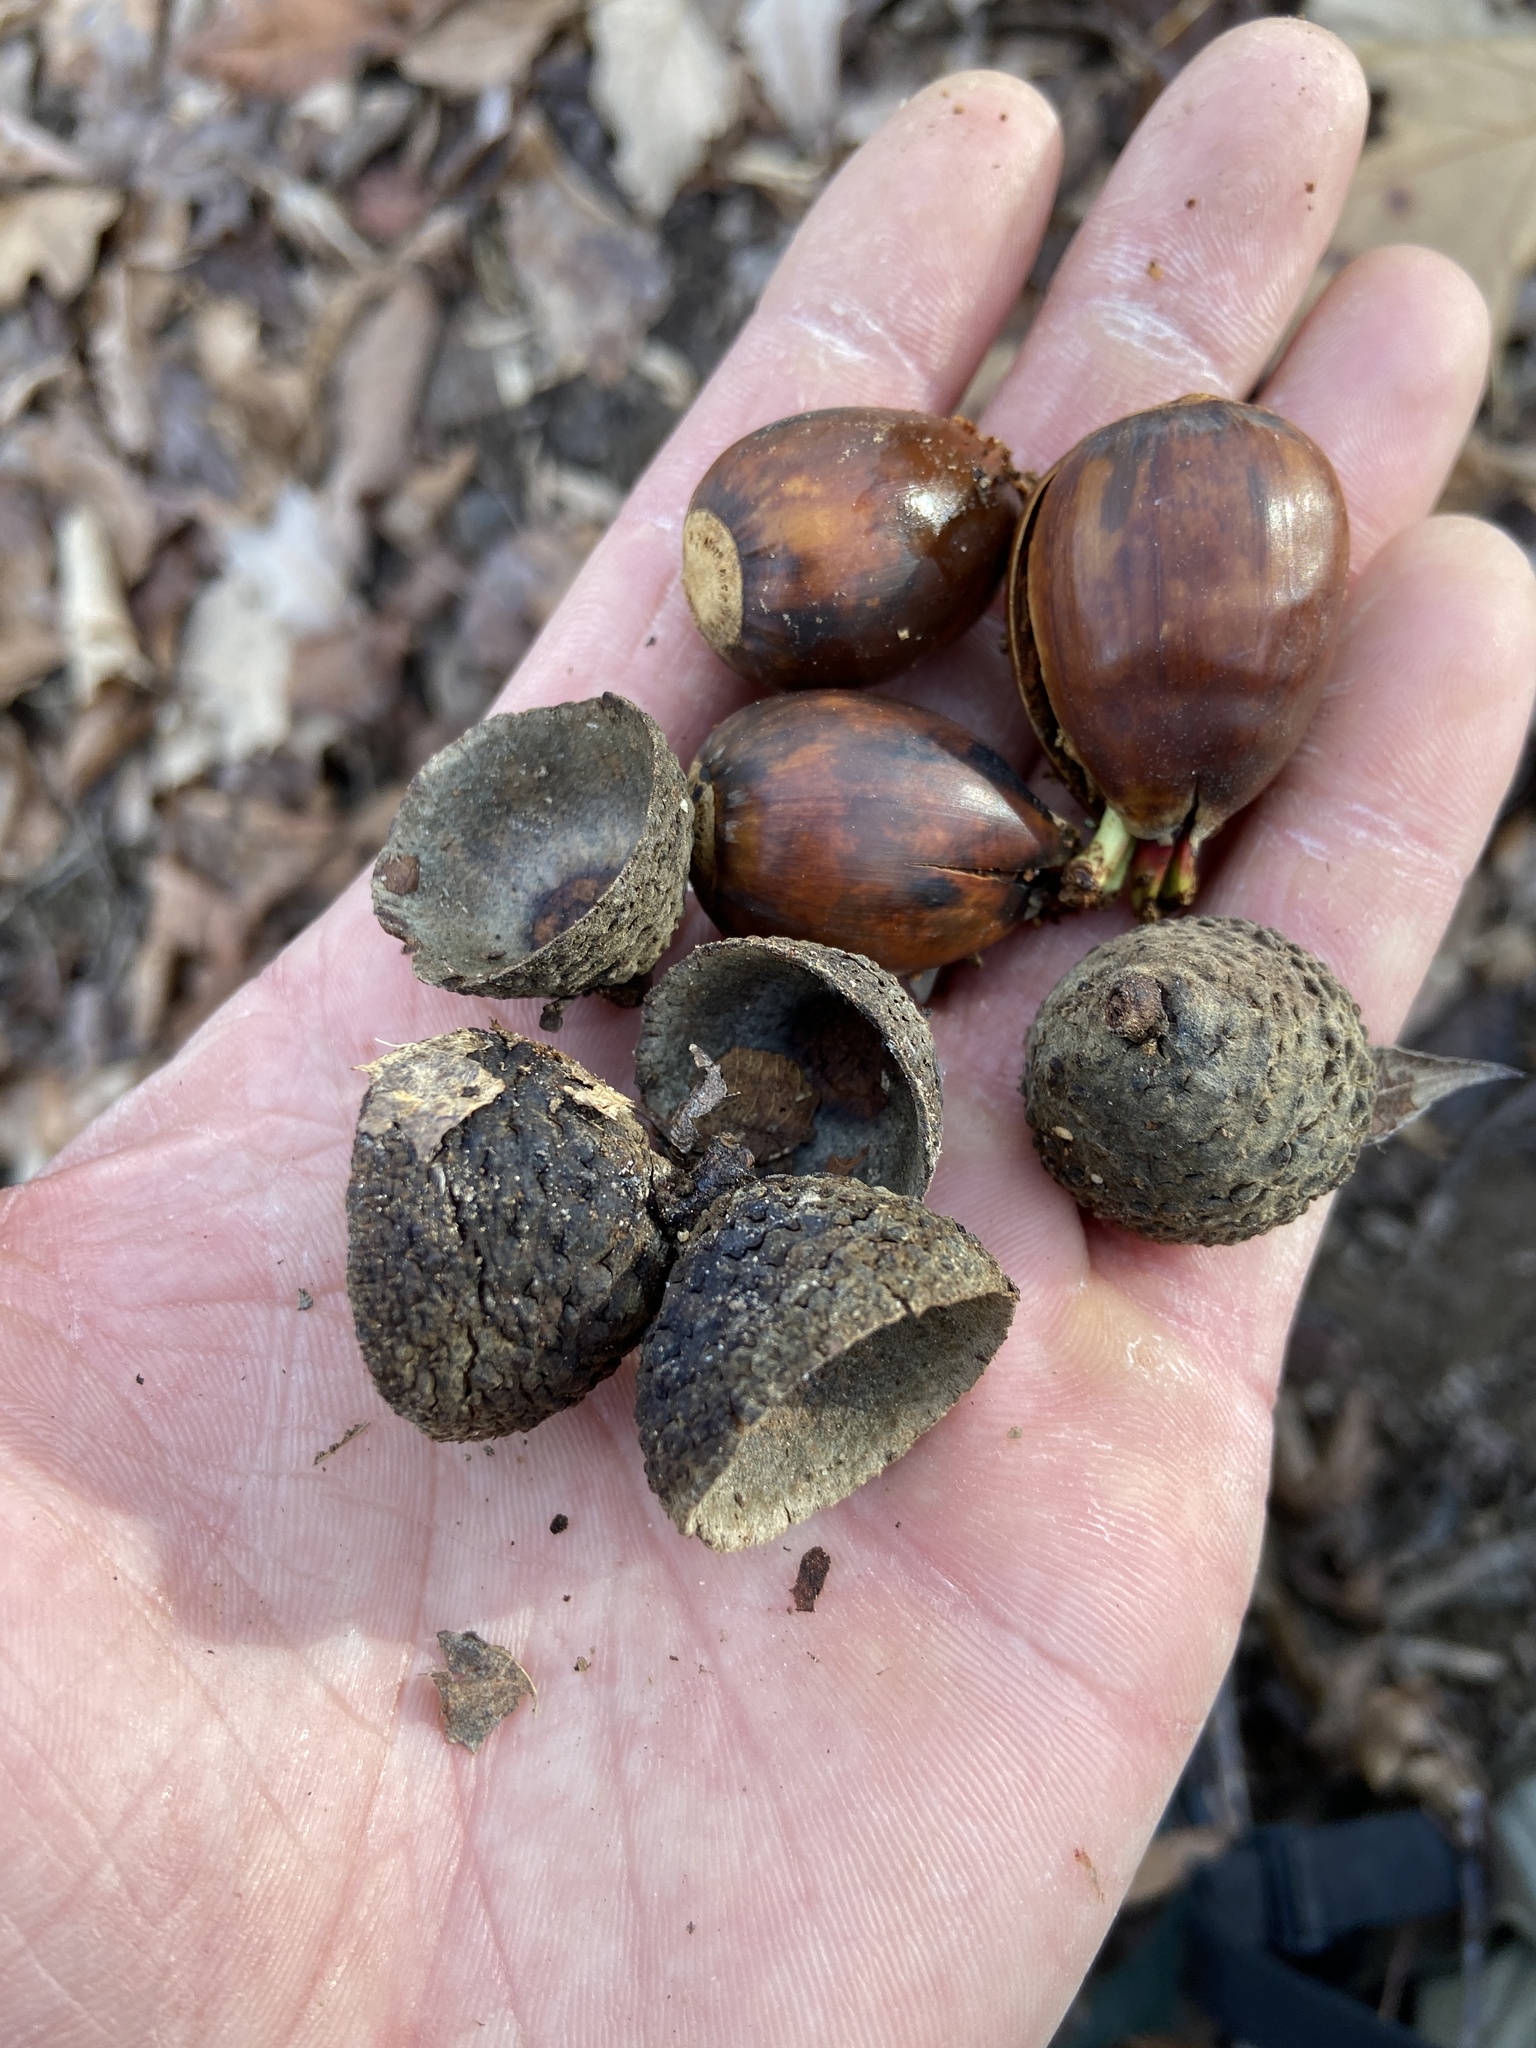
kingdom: Plantae
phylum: Tracheophyta
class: Magnoliopsida
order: Fagales
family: Fagaceae
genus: Quercus
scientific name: Quercus montana
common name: Chestnut oak
